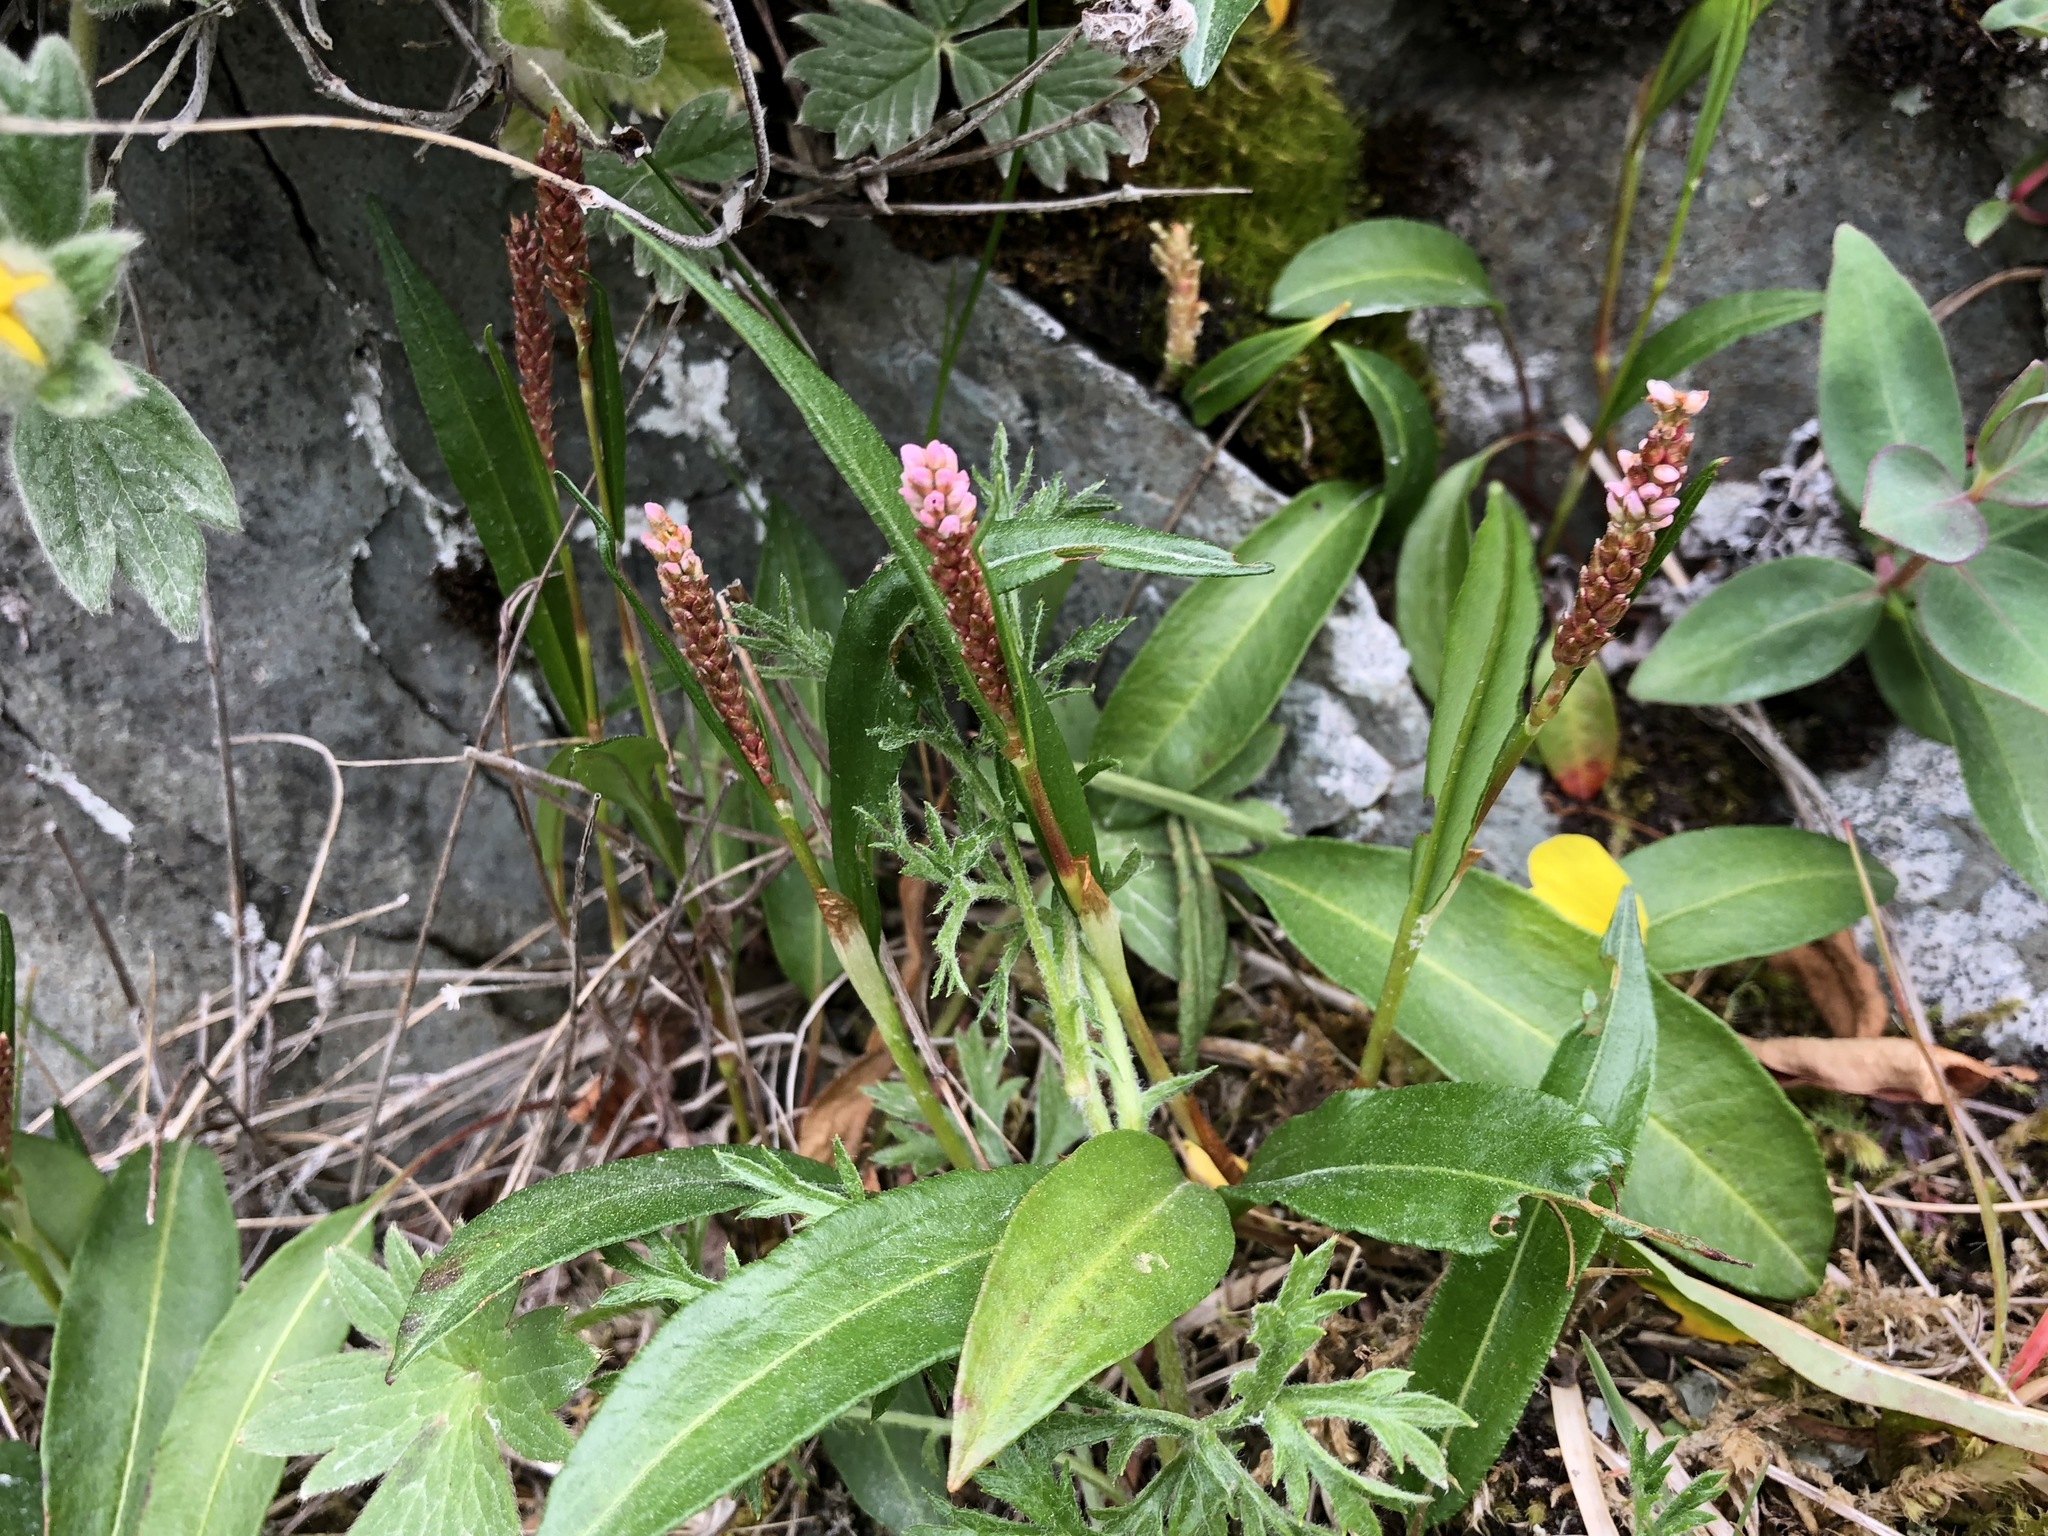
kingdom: Plantae
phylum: Tracheophyta
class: Magnoliopsida
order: Caryophyllales
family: Polygonaceae
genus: Bistorta
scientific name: Bistorta vivipara
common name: Alpine bistort
